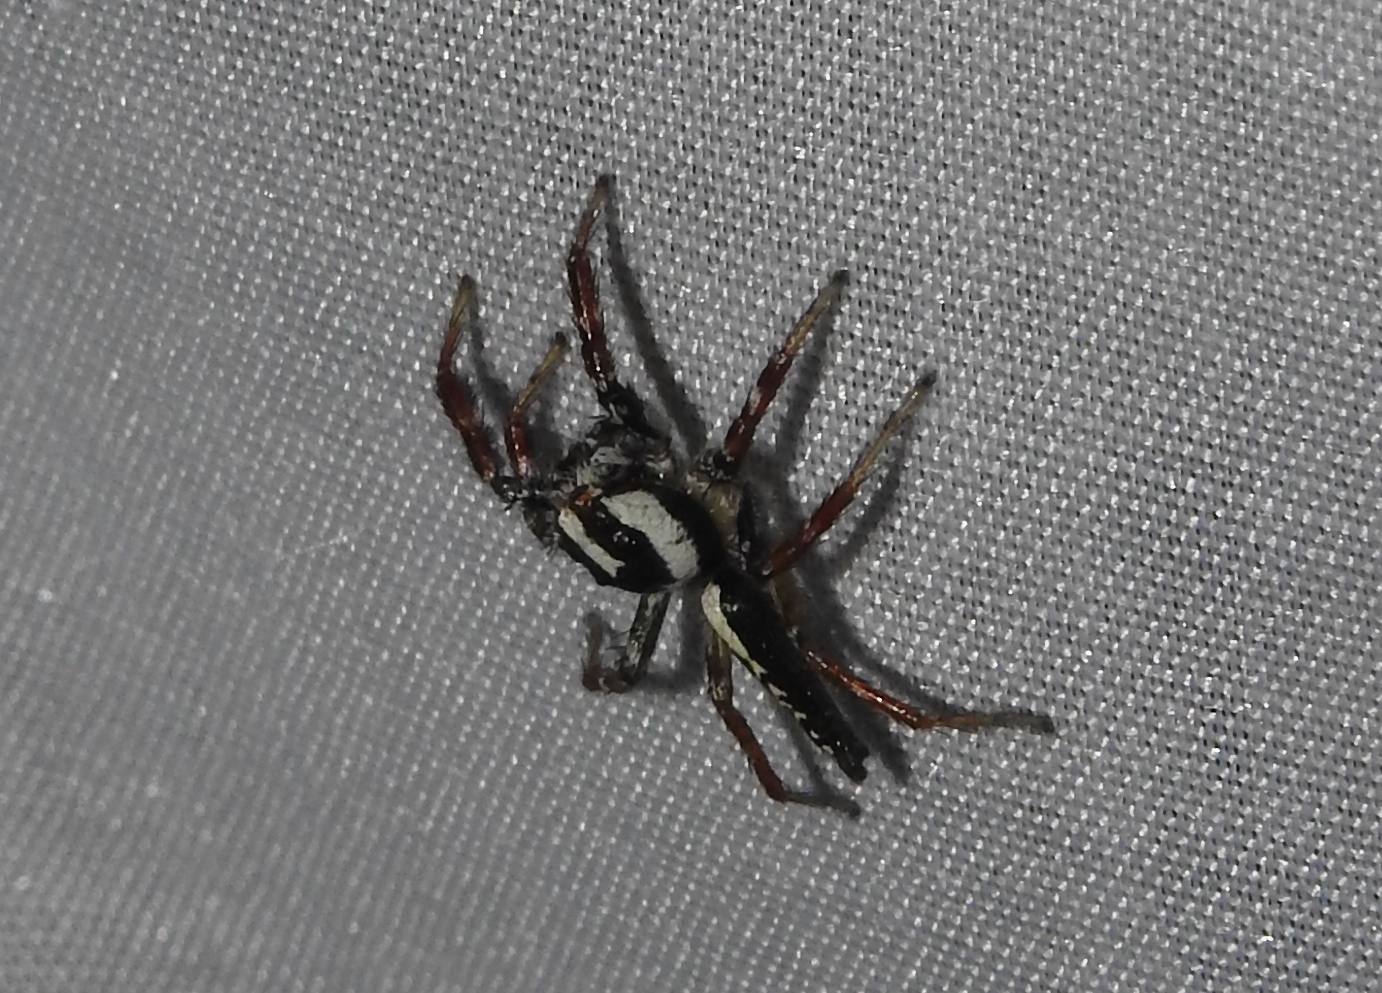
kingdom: Animalia
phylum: Arthropoda
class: Arachnida
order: Araneae
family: Salticidae
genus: Telamonia
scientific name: Telamonia festiva
